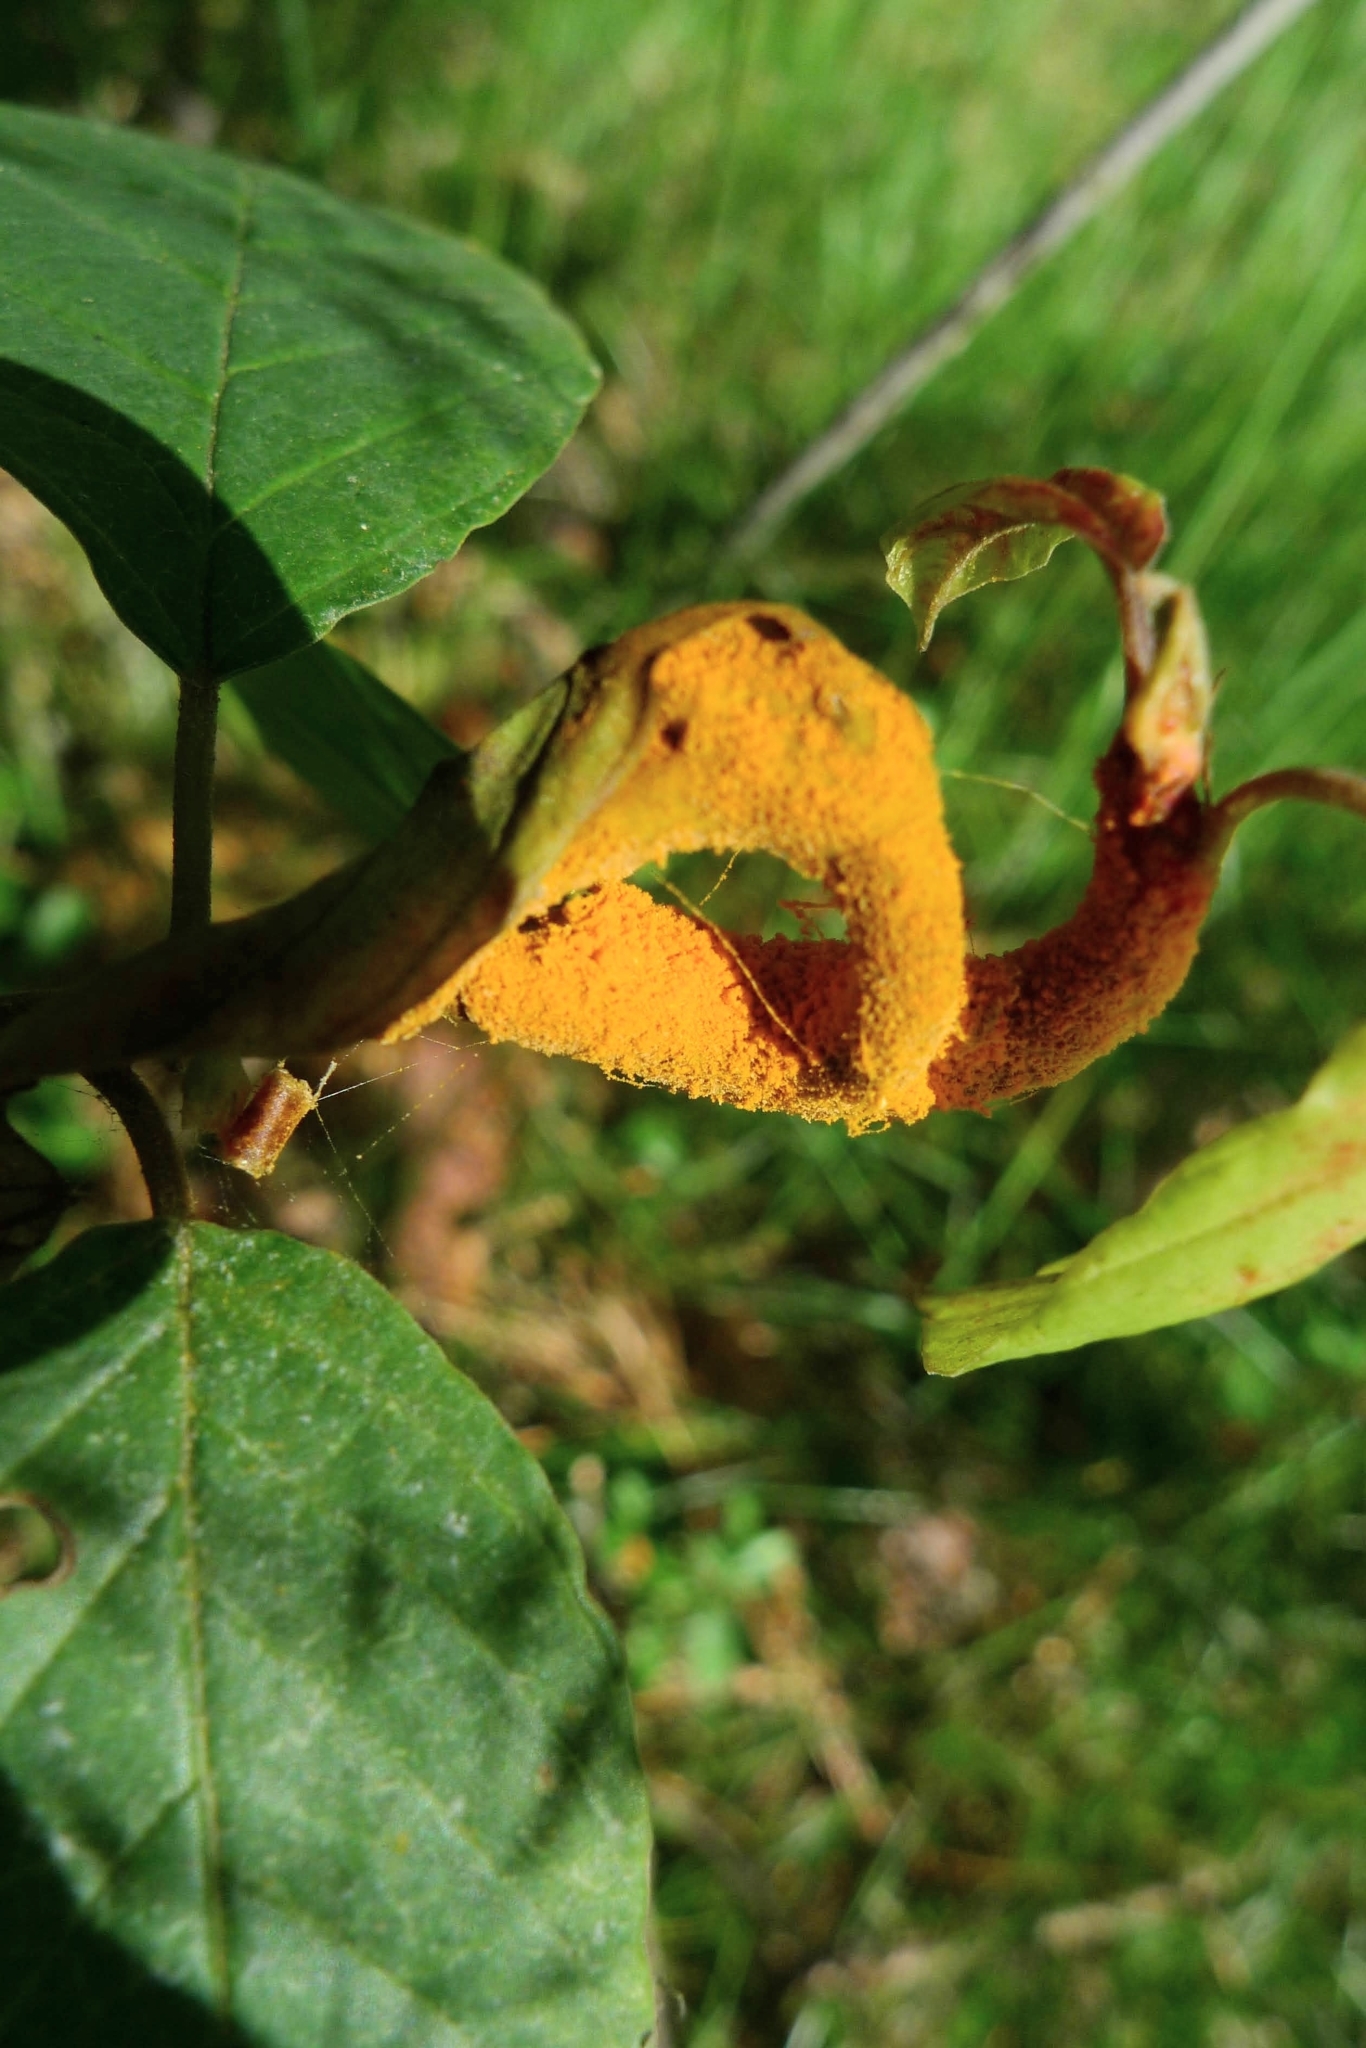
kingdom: Fungi
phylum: Basidiomycota
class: Pucciniomycetes
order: Pucciniales
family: Pucciniaceae
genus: Puccinia
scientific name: Puccinia coronata
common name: Crown rust
